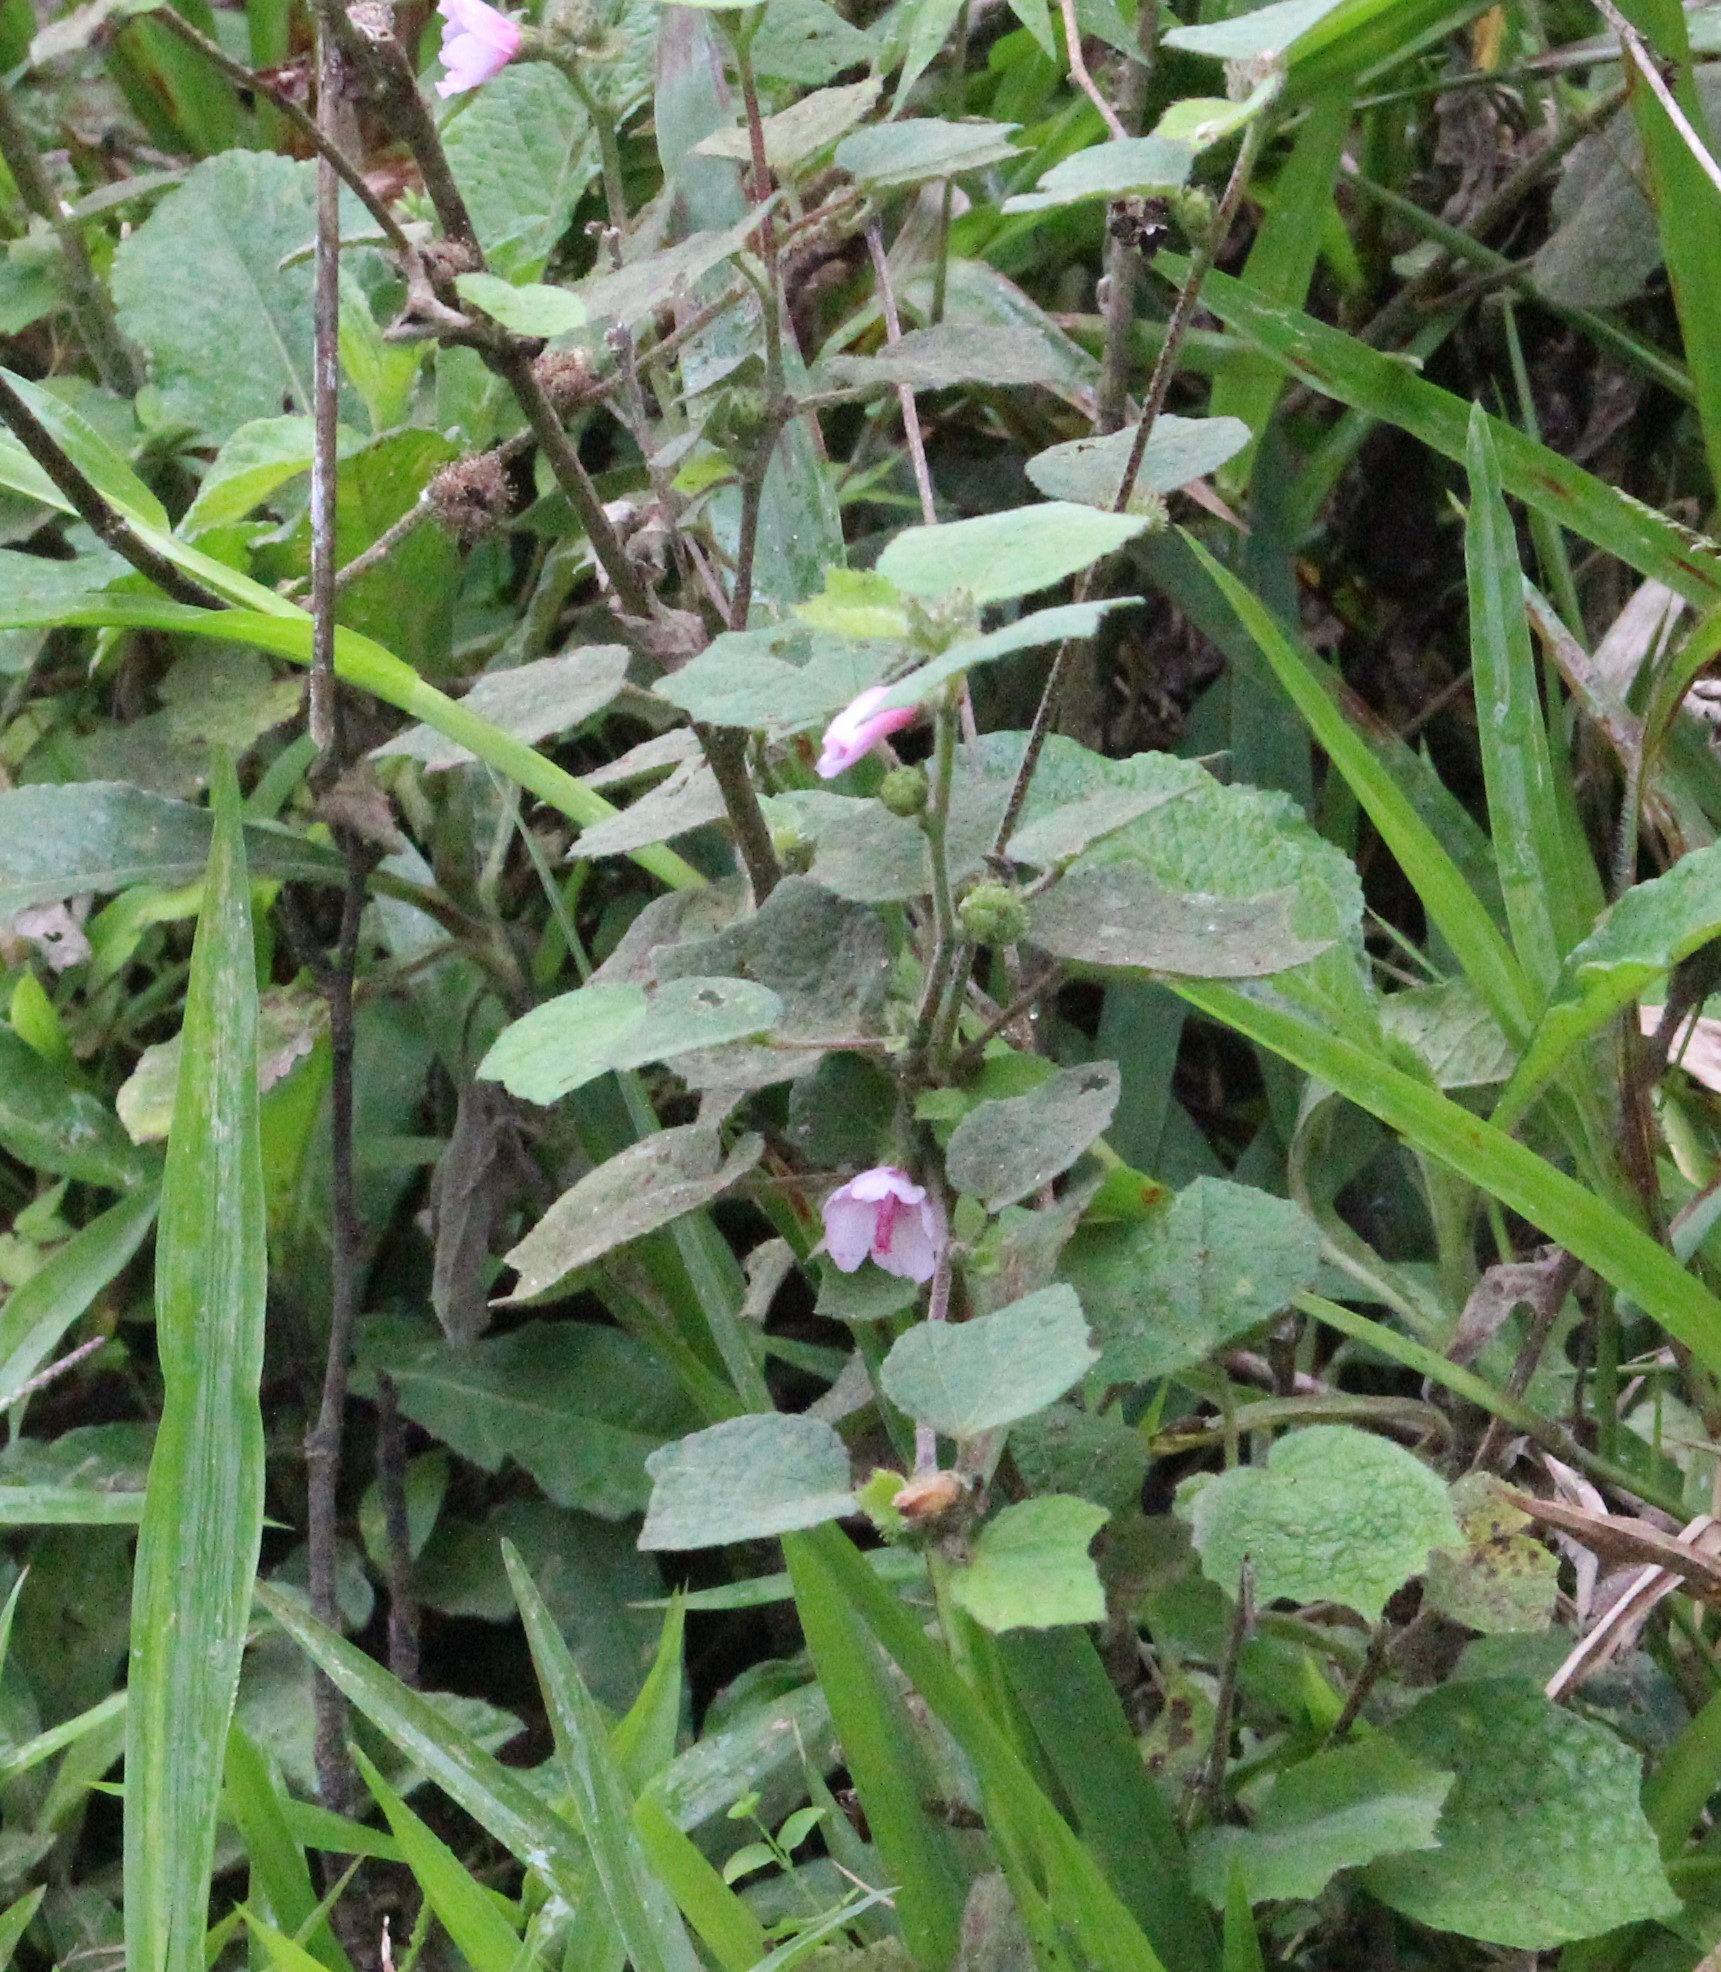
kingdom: Plantae
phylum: Tracheophyta
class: Magnoliopsida
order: Malvales
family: Malvaceae
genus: Urena
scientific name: Urena lobata
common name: Caesarweed
